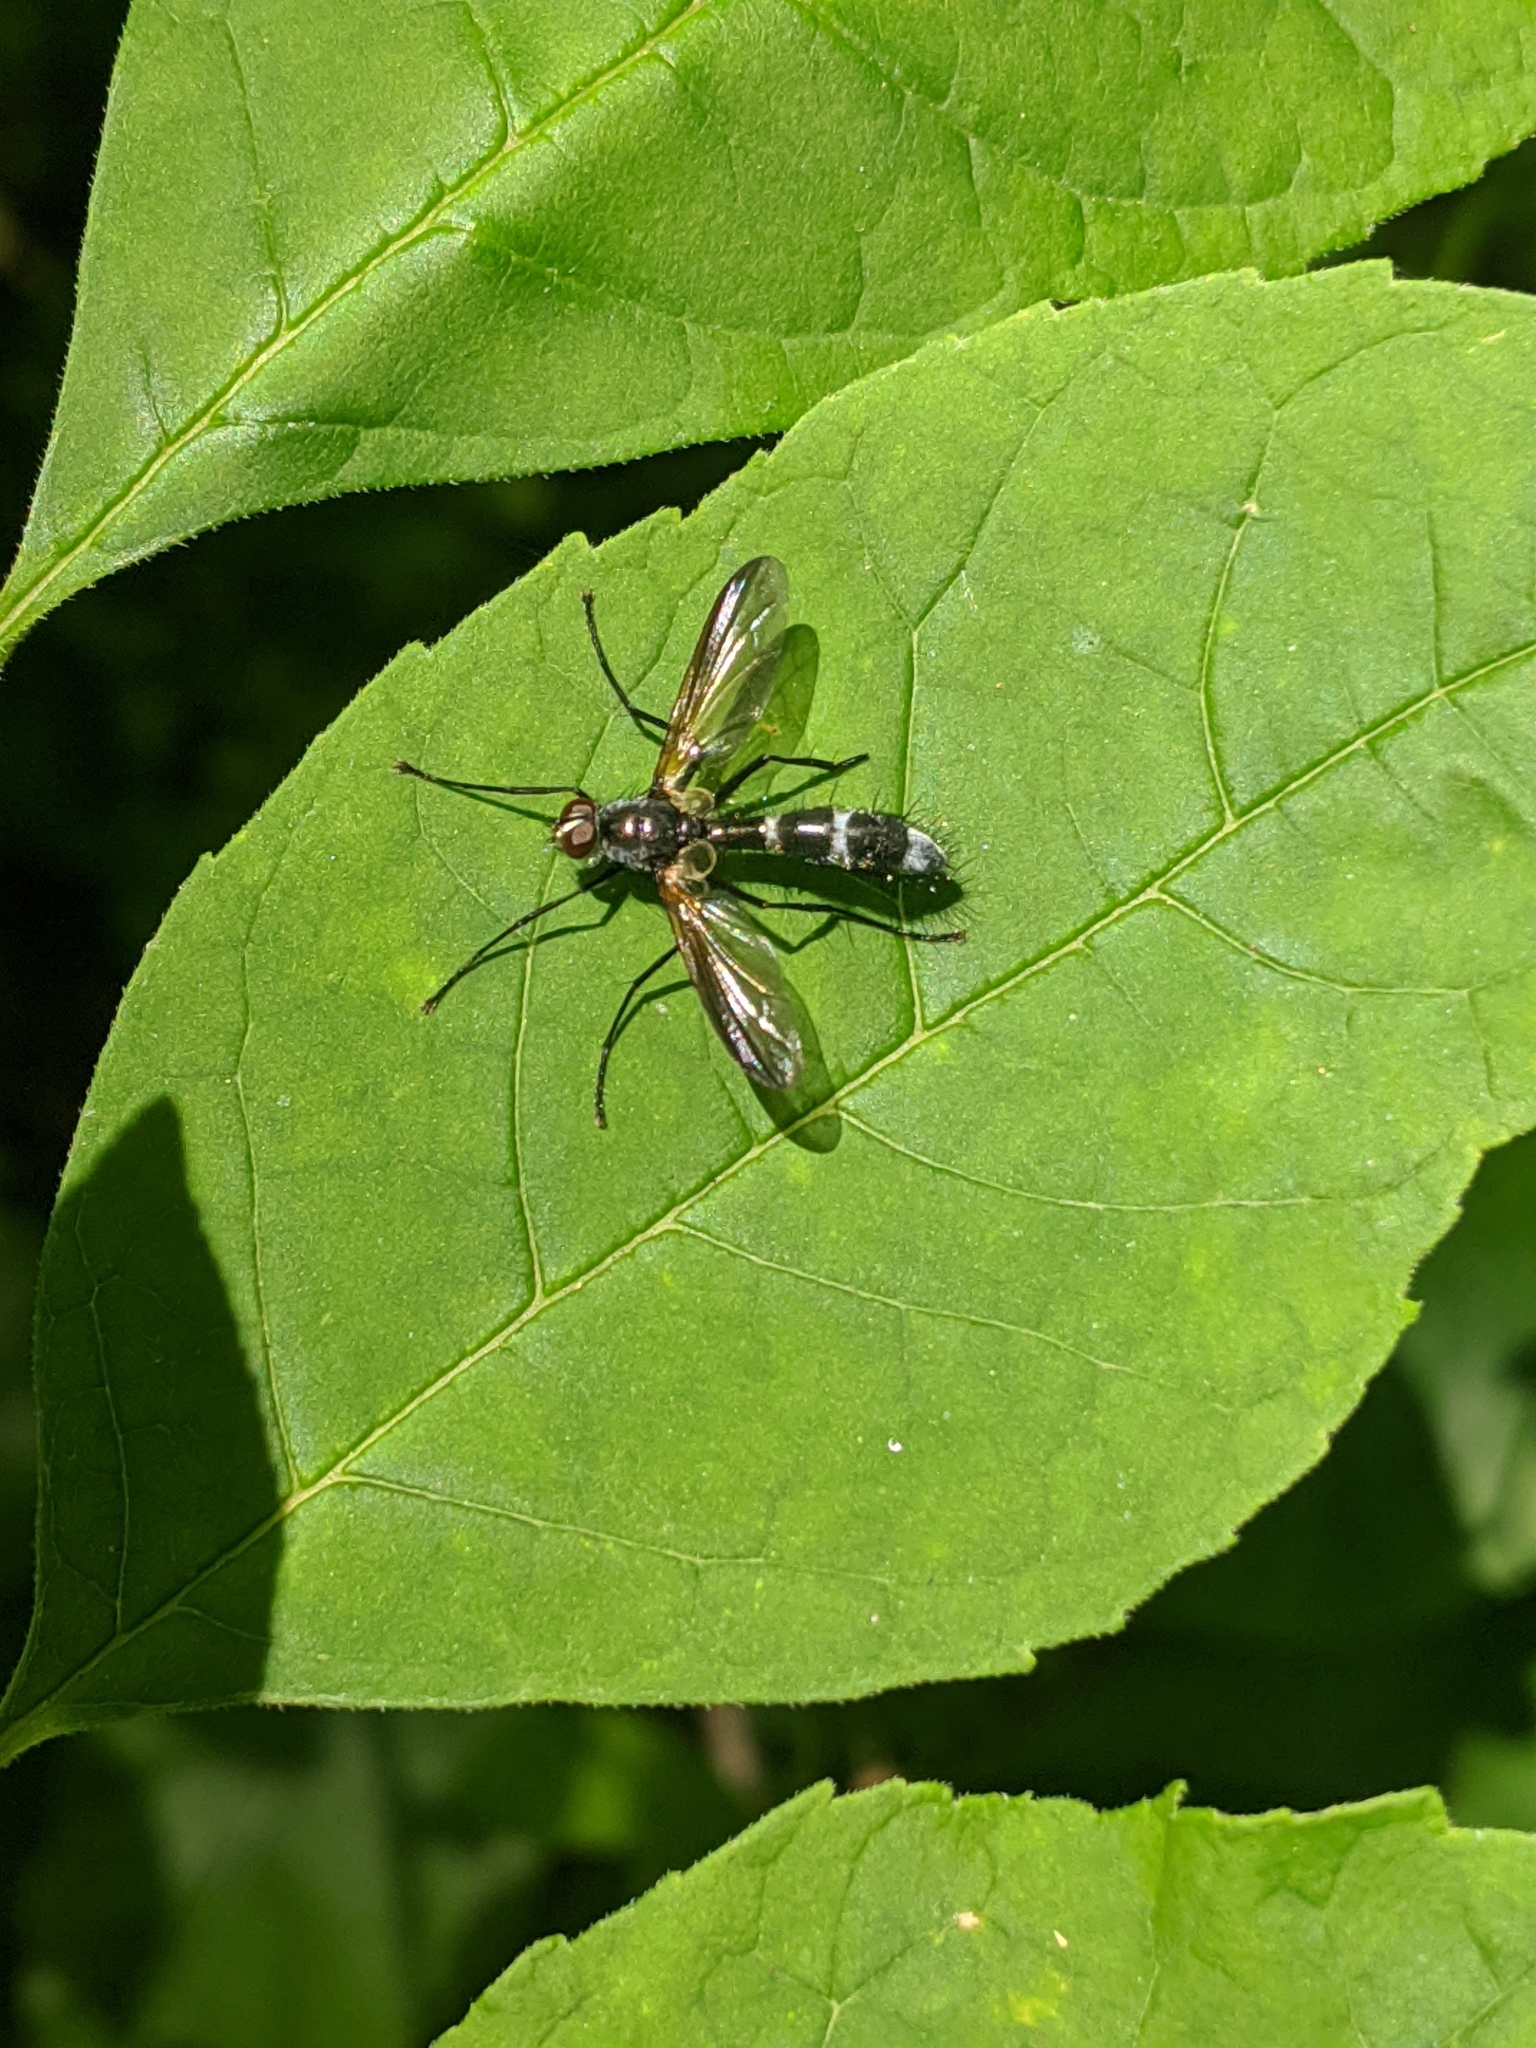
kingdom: Animalia
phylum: Arthropoda
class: Insecta
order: Diptera
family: Tachinidae
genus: Cordyligaster
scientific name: Cordyligaster septentrionalis
